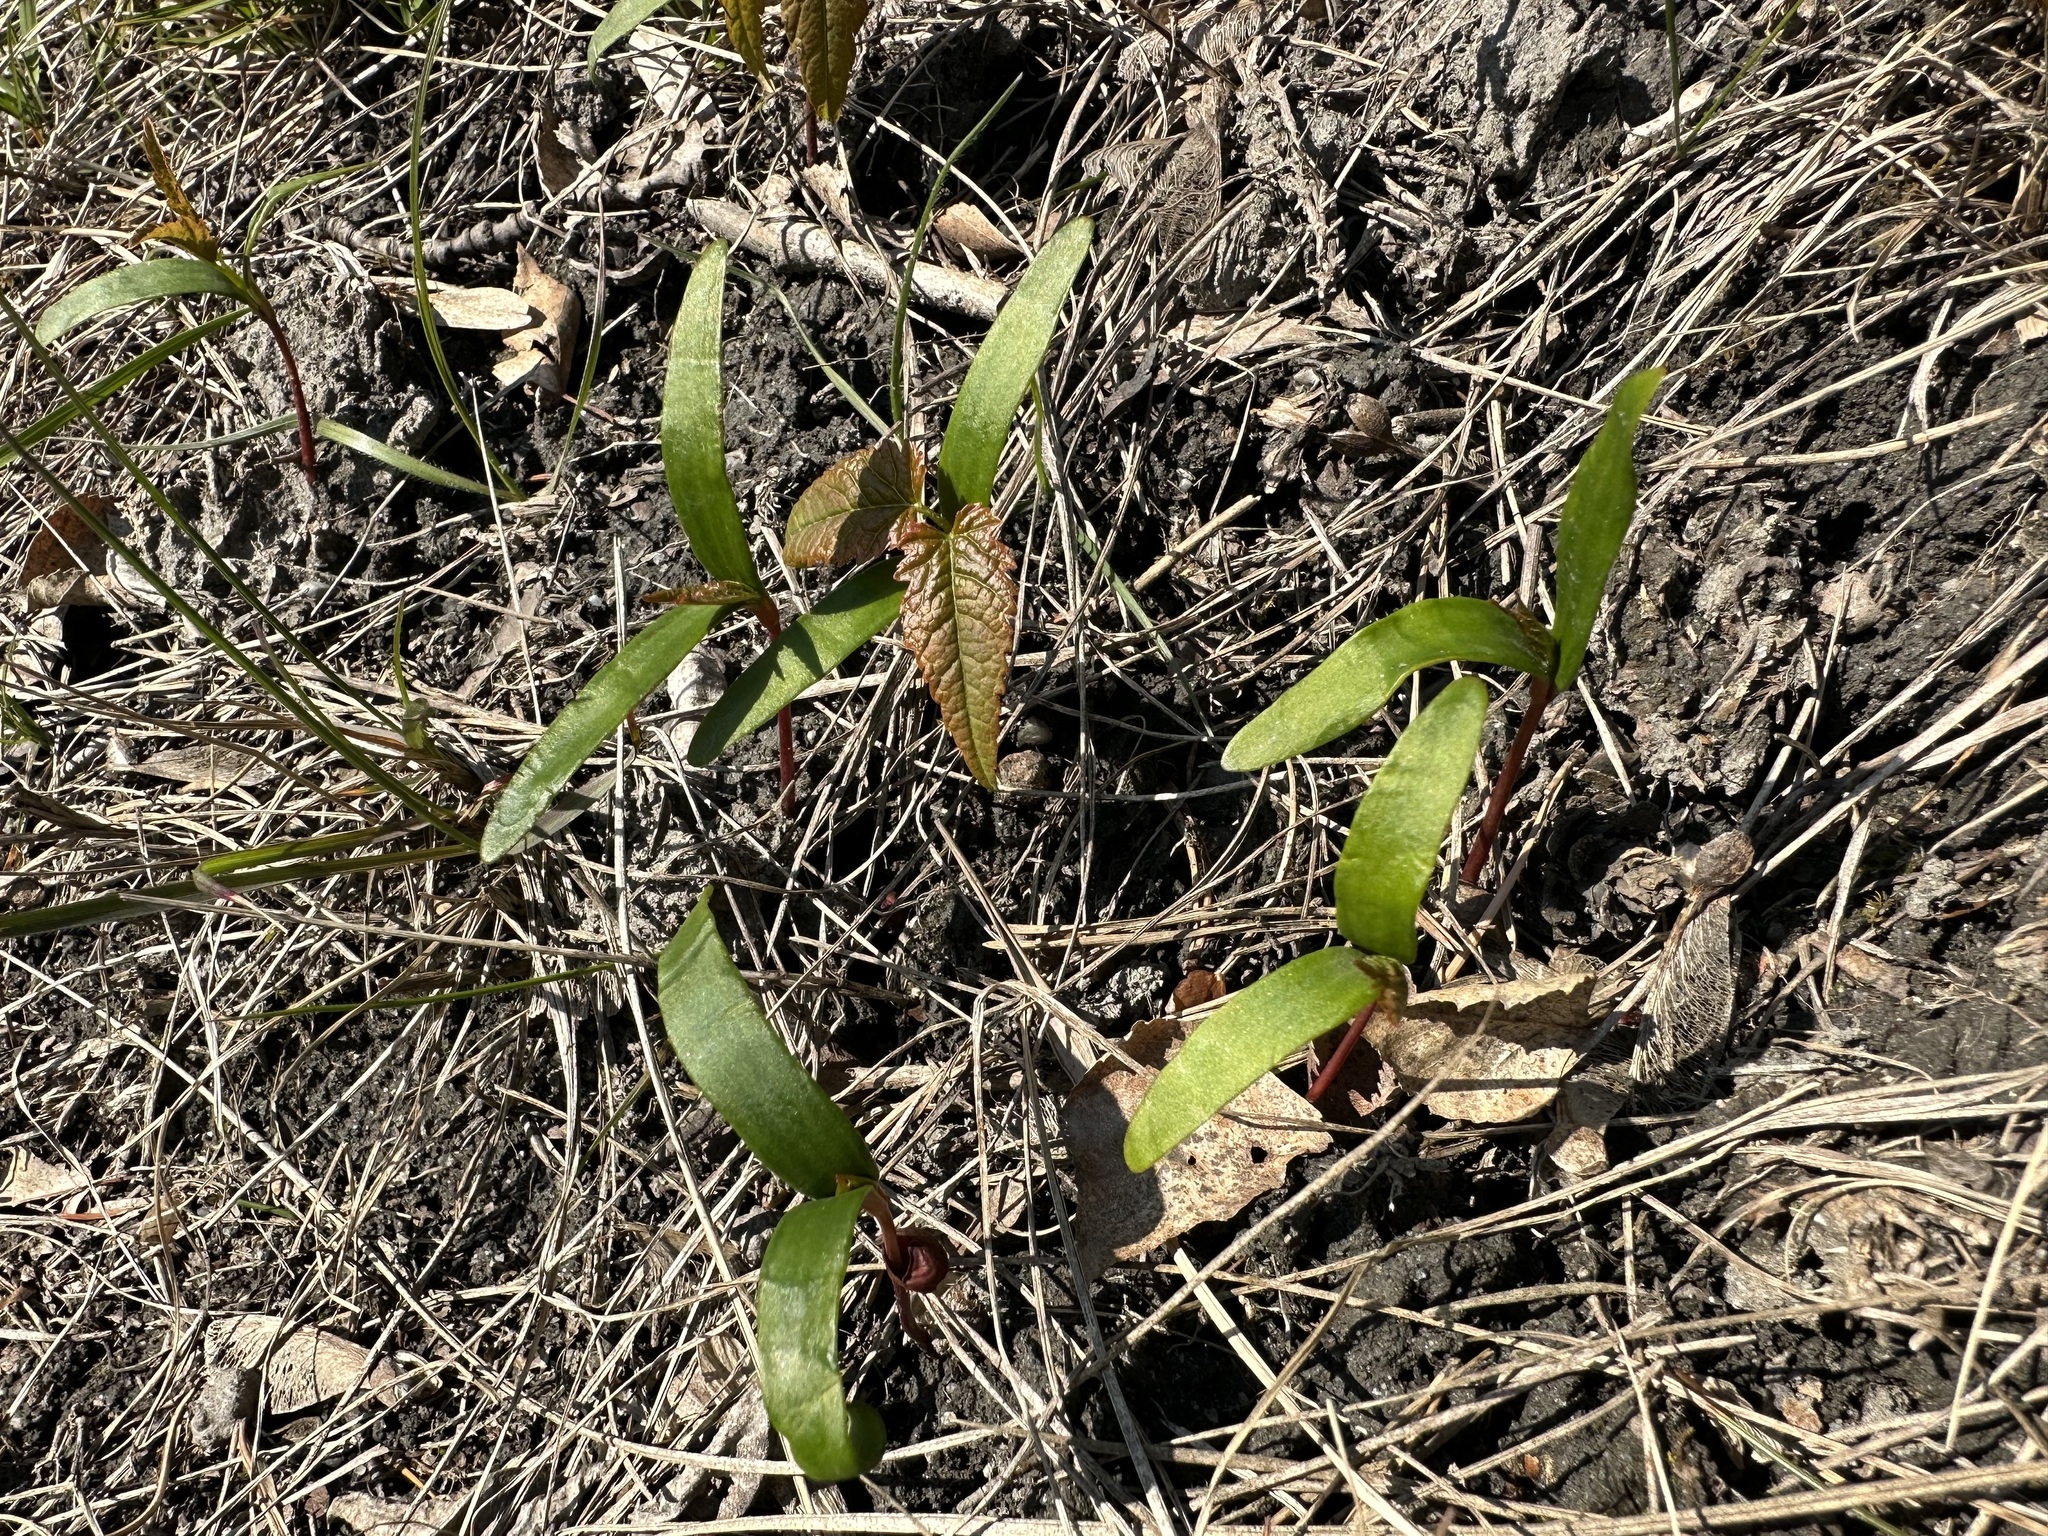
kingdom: Plantae
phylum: Tracheophyta
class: Magnoliopsida
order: Sapindales
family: Sapindaceae
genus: Acer
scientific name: Acer pseudoplatanus
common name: Sycamore
